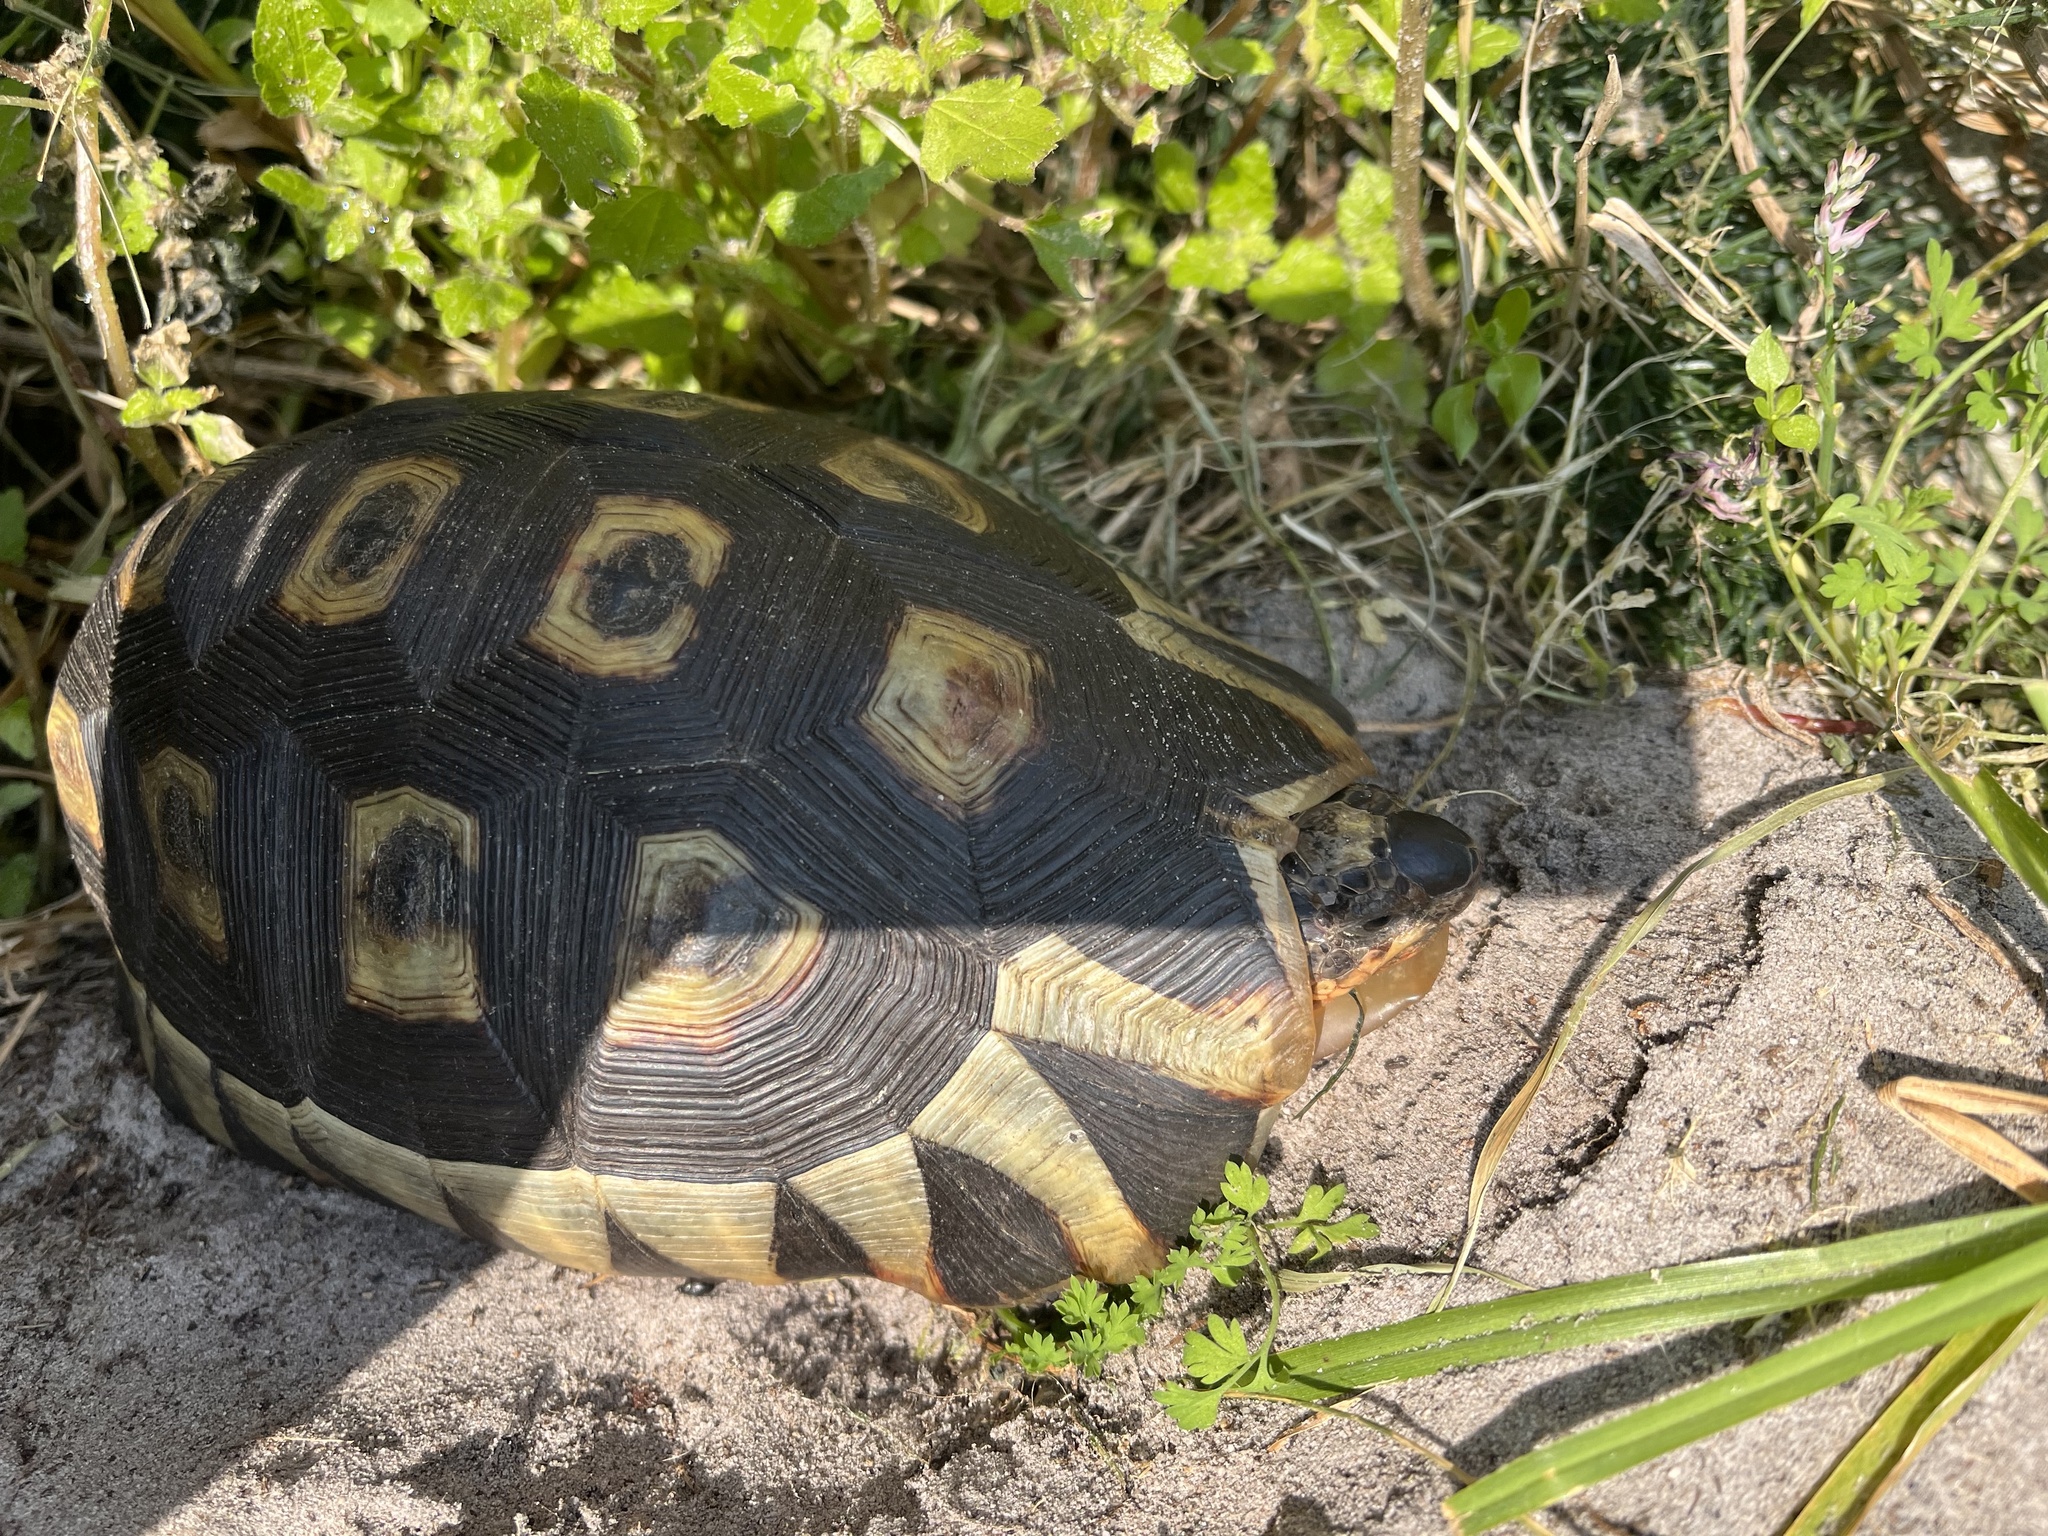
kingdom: Animalia
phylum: Chordata
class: Testudines
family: Testudinidae
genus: Chersina
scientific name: Chersina angulata
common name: South african bowsprit tortoise
